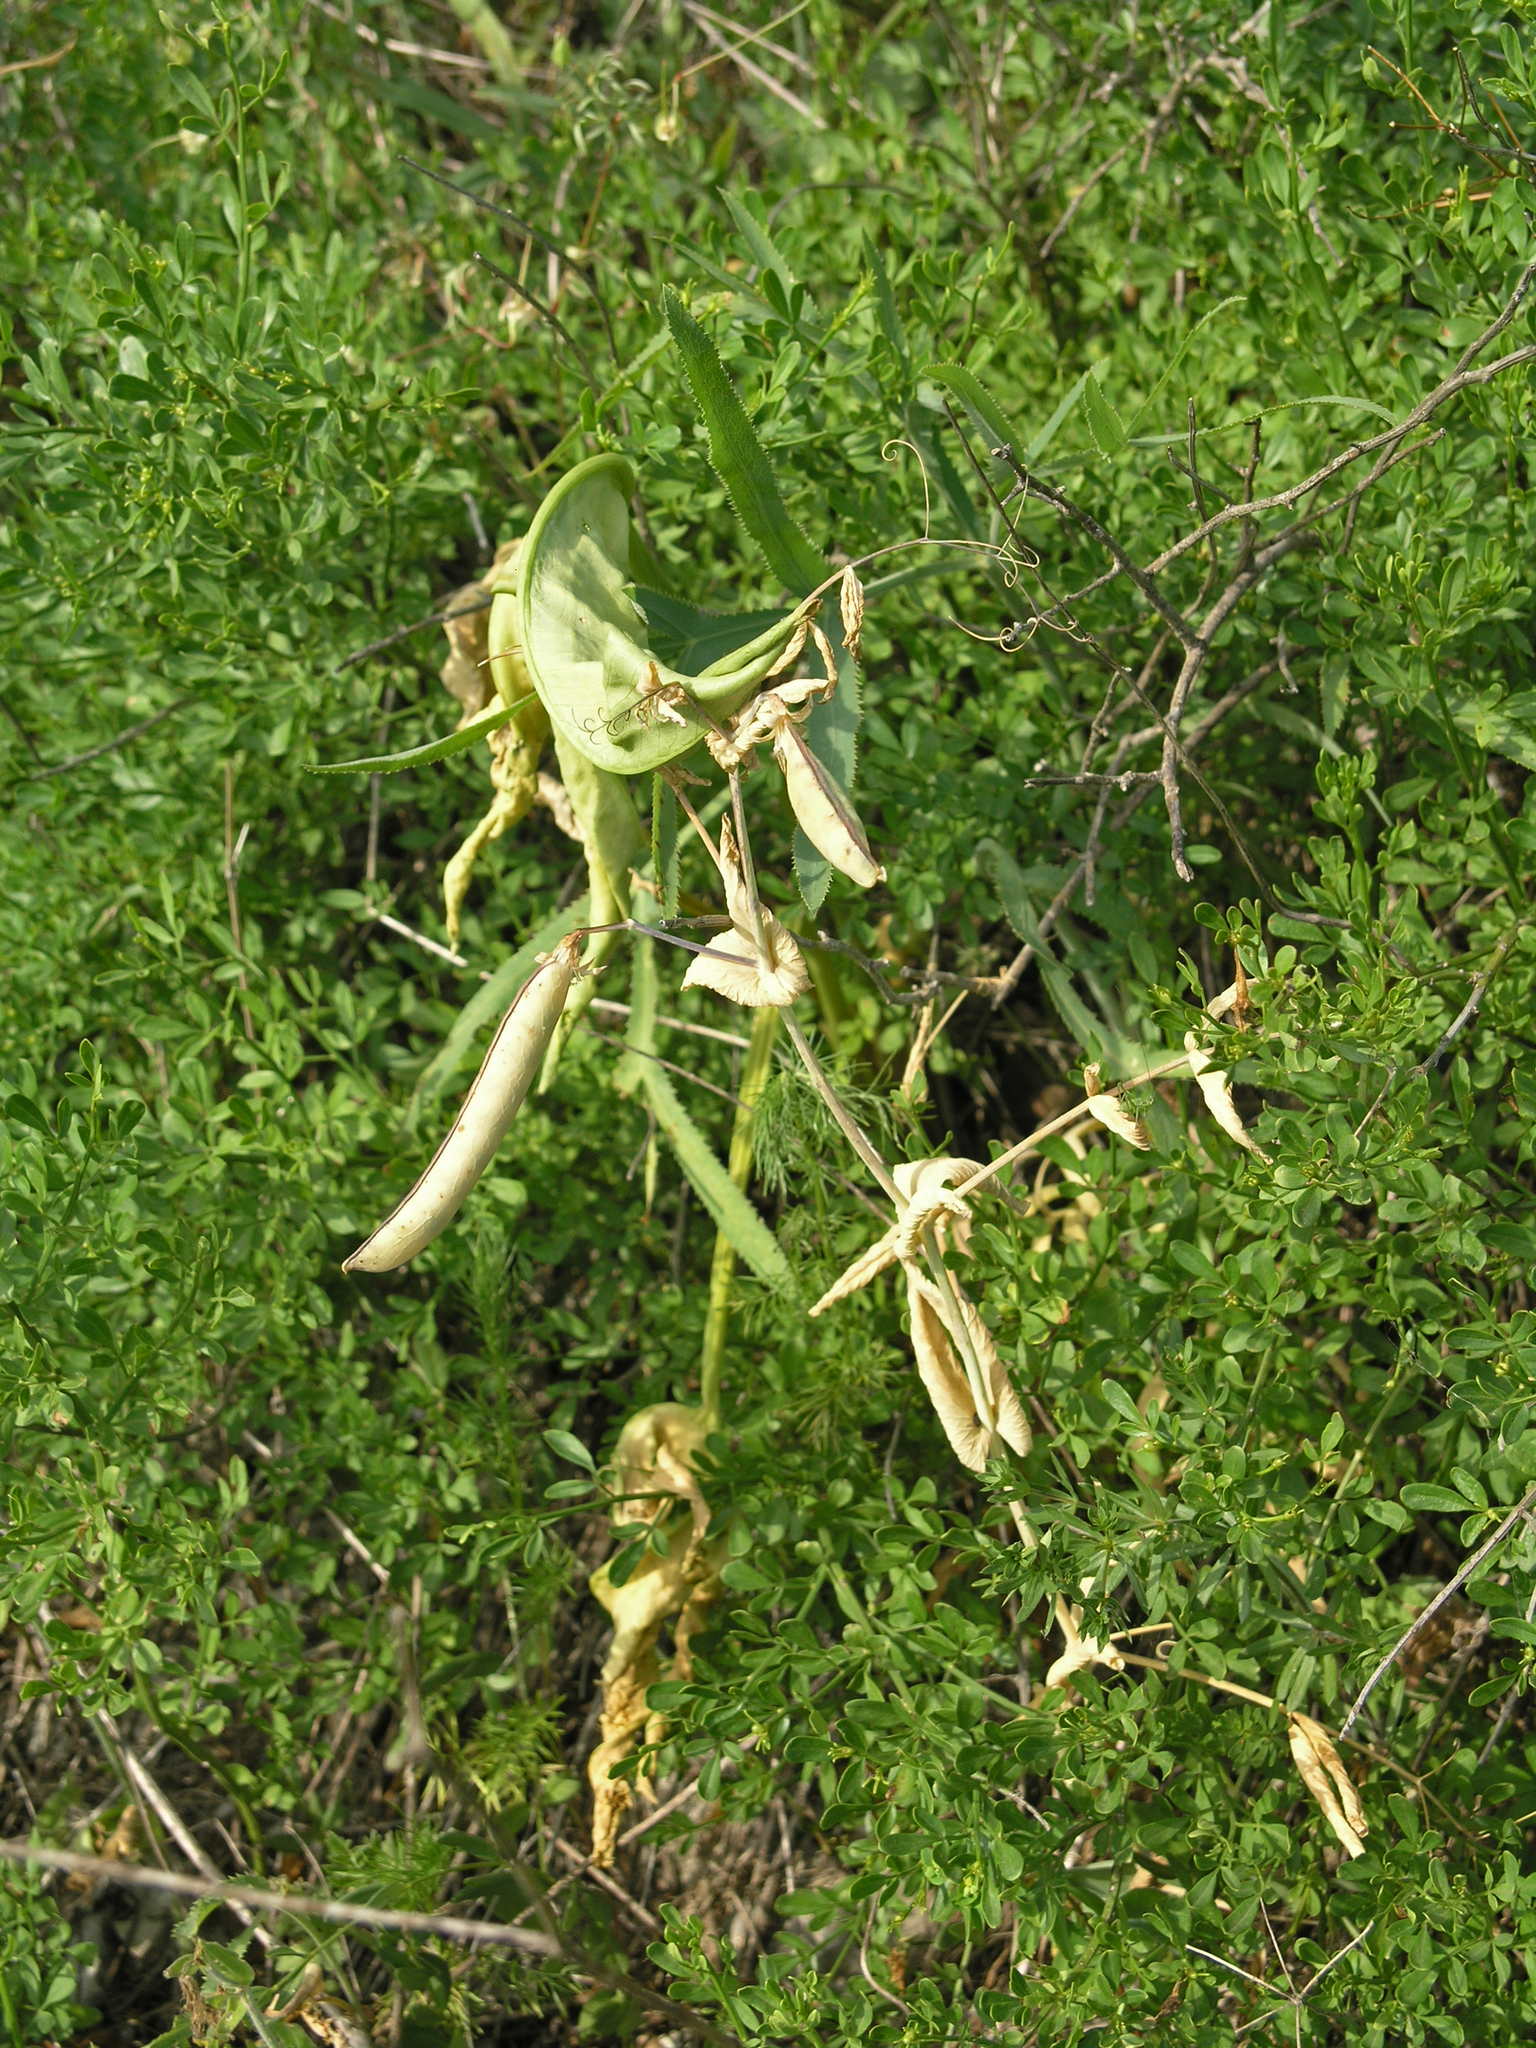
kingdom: Plantae
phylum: Tracheophyta
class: Magnoliopsida
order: Fabales
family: Fabaceae
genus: Lathyrus
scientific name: Lathyrus oleraceus
